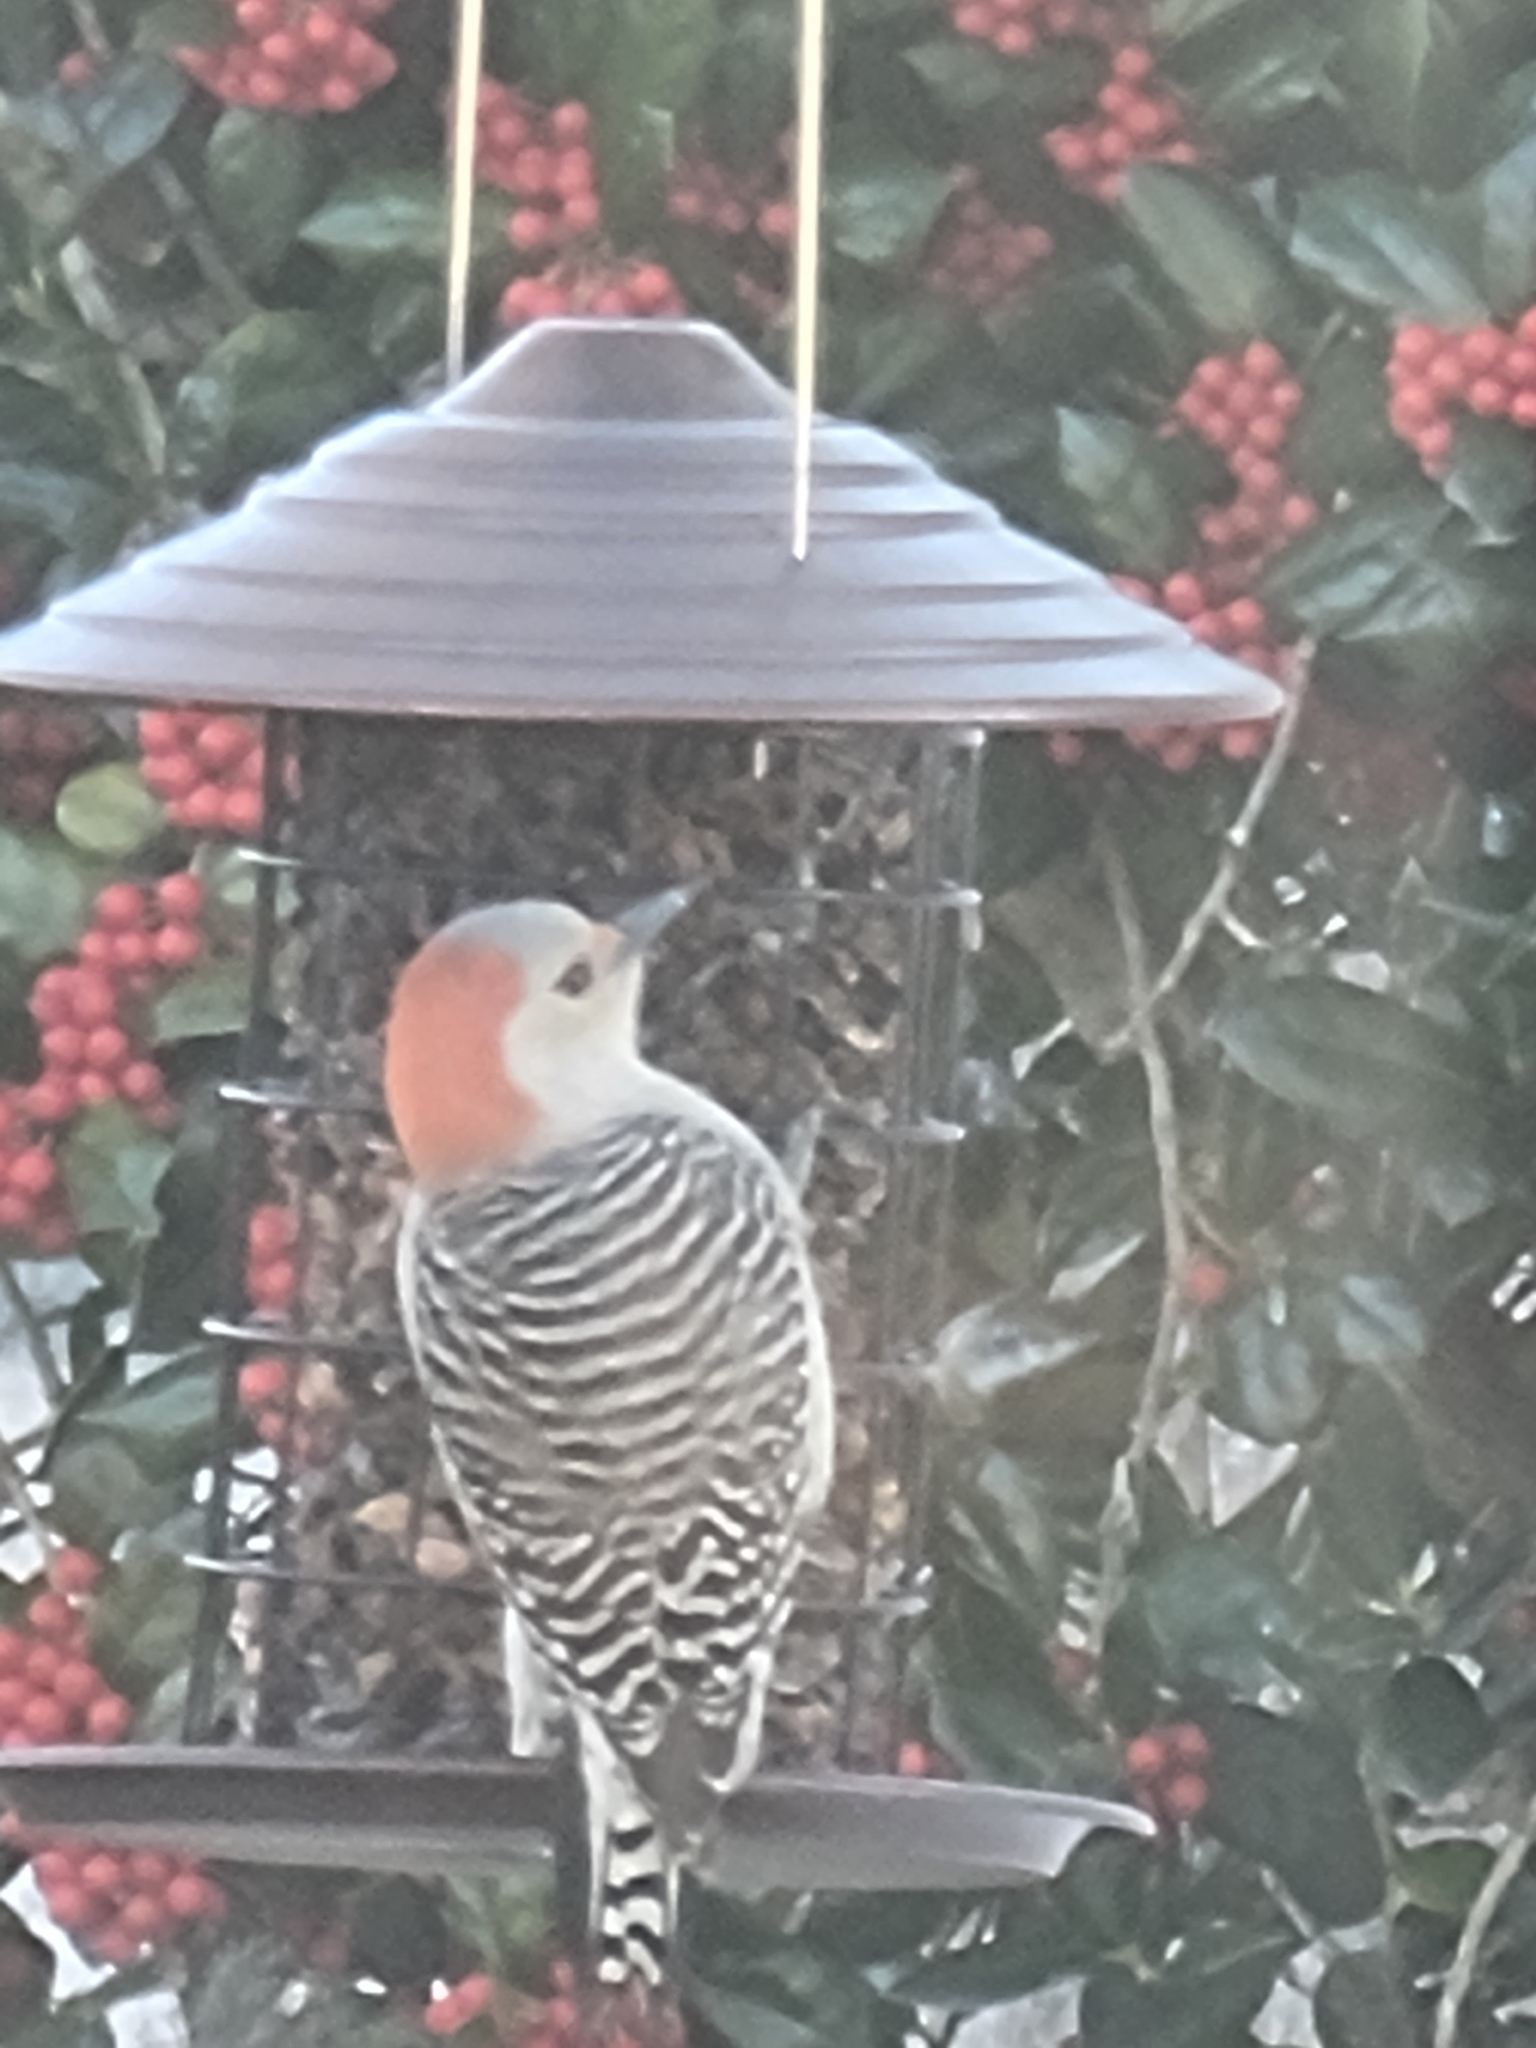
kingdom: Animalia
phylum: Chordata
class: Aves
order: Piciformes
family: Picidae
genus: Melanerpes
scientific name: Melanerpes carolinus
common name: Red-bellied woodpecker
